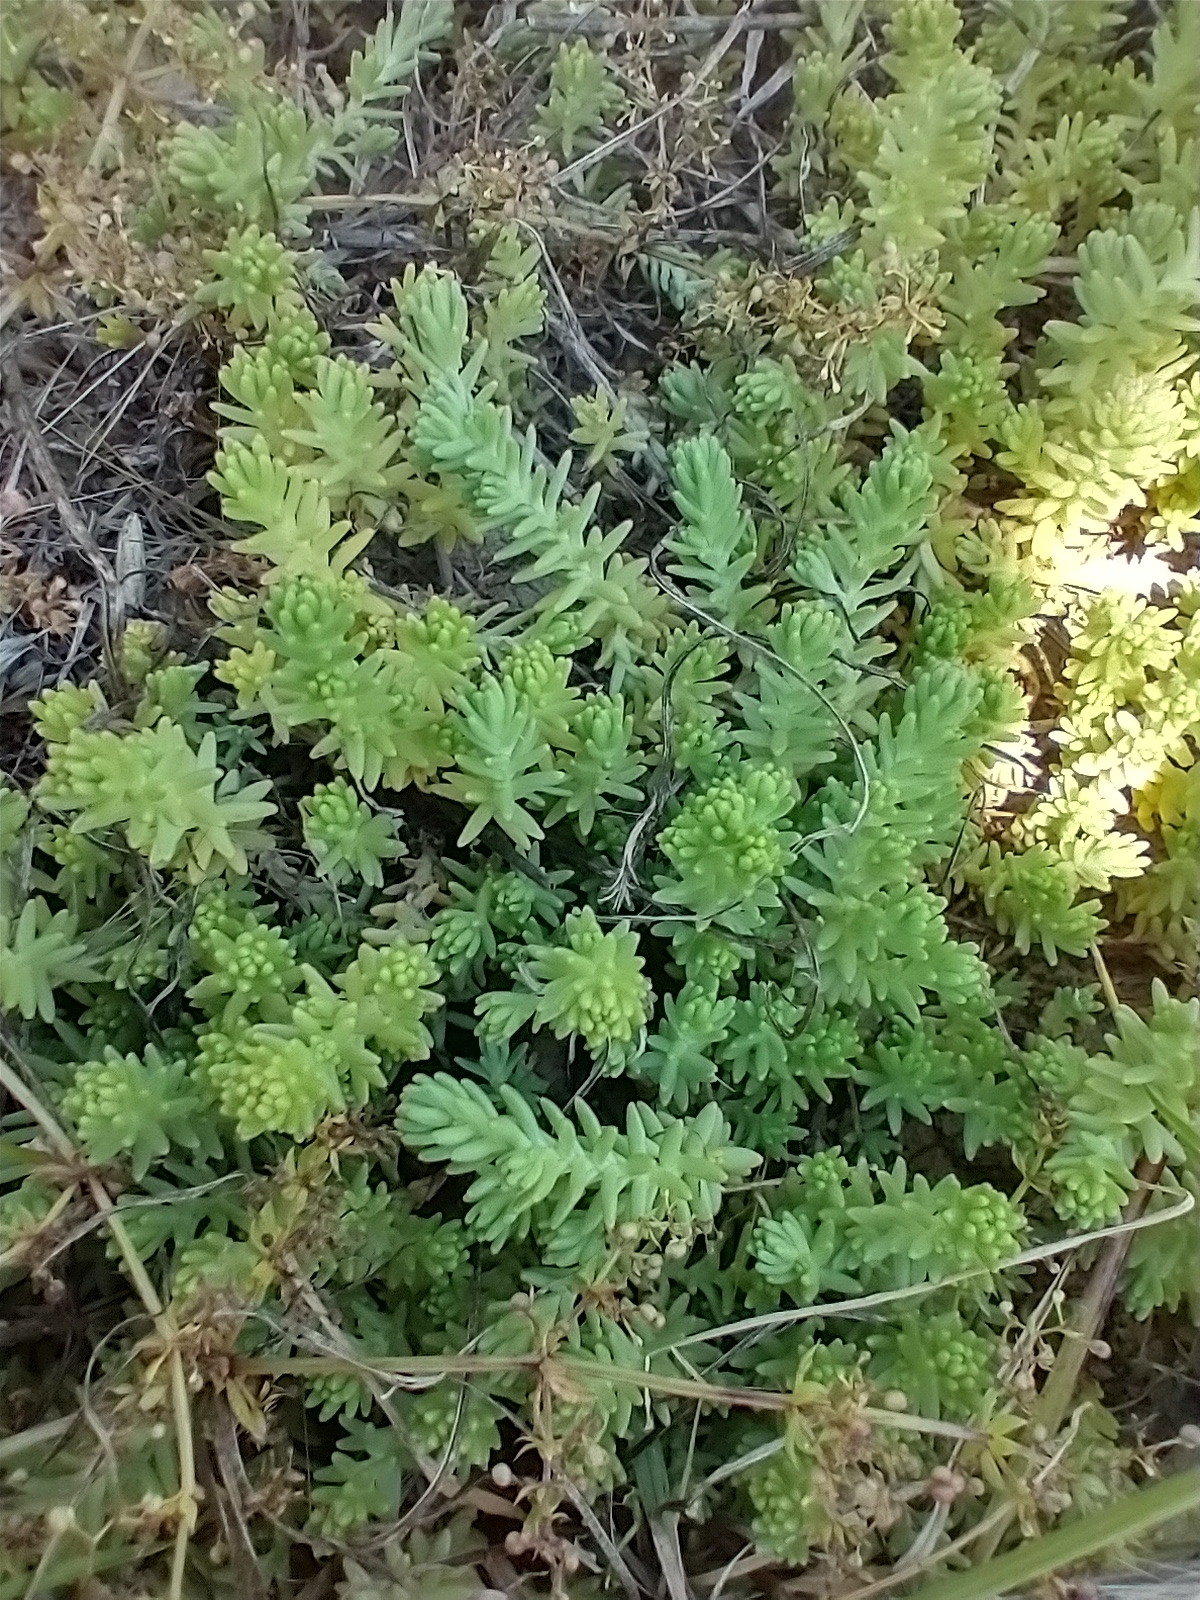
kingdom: Plantae
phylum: Tracheophyta
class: Magnoliopsida
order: Saxifragales
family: Crassulaceae
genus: Sedum
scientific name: Sedum sexangulare
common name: Tasteless stonecrop
